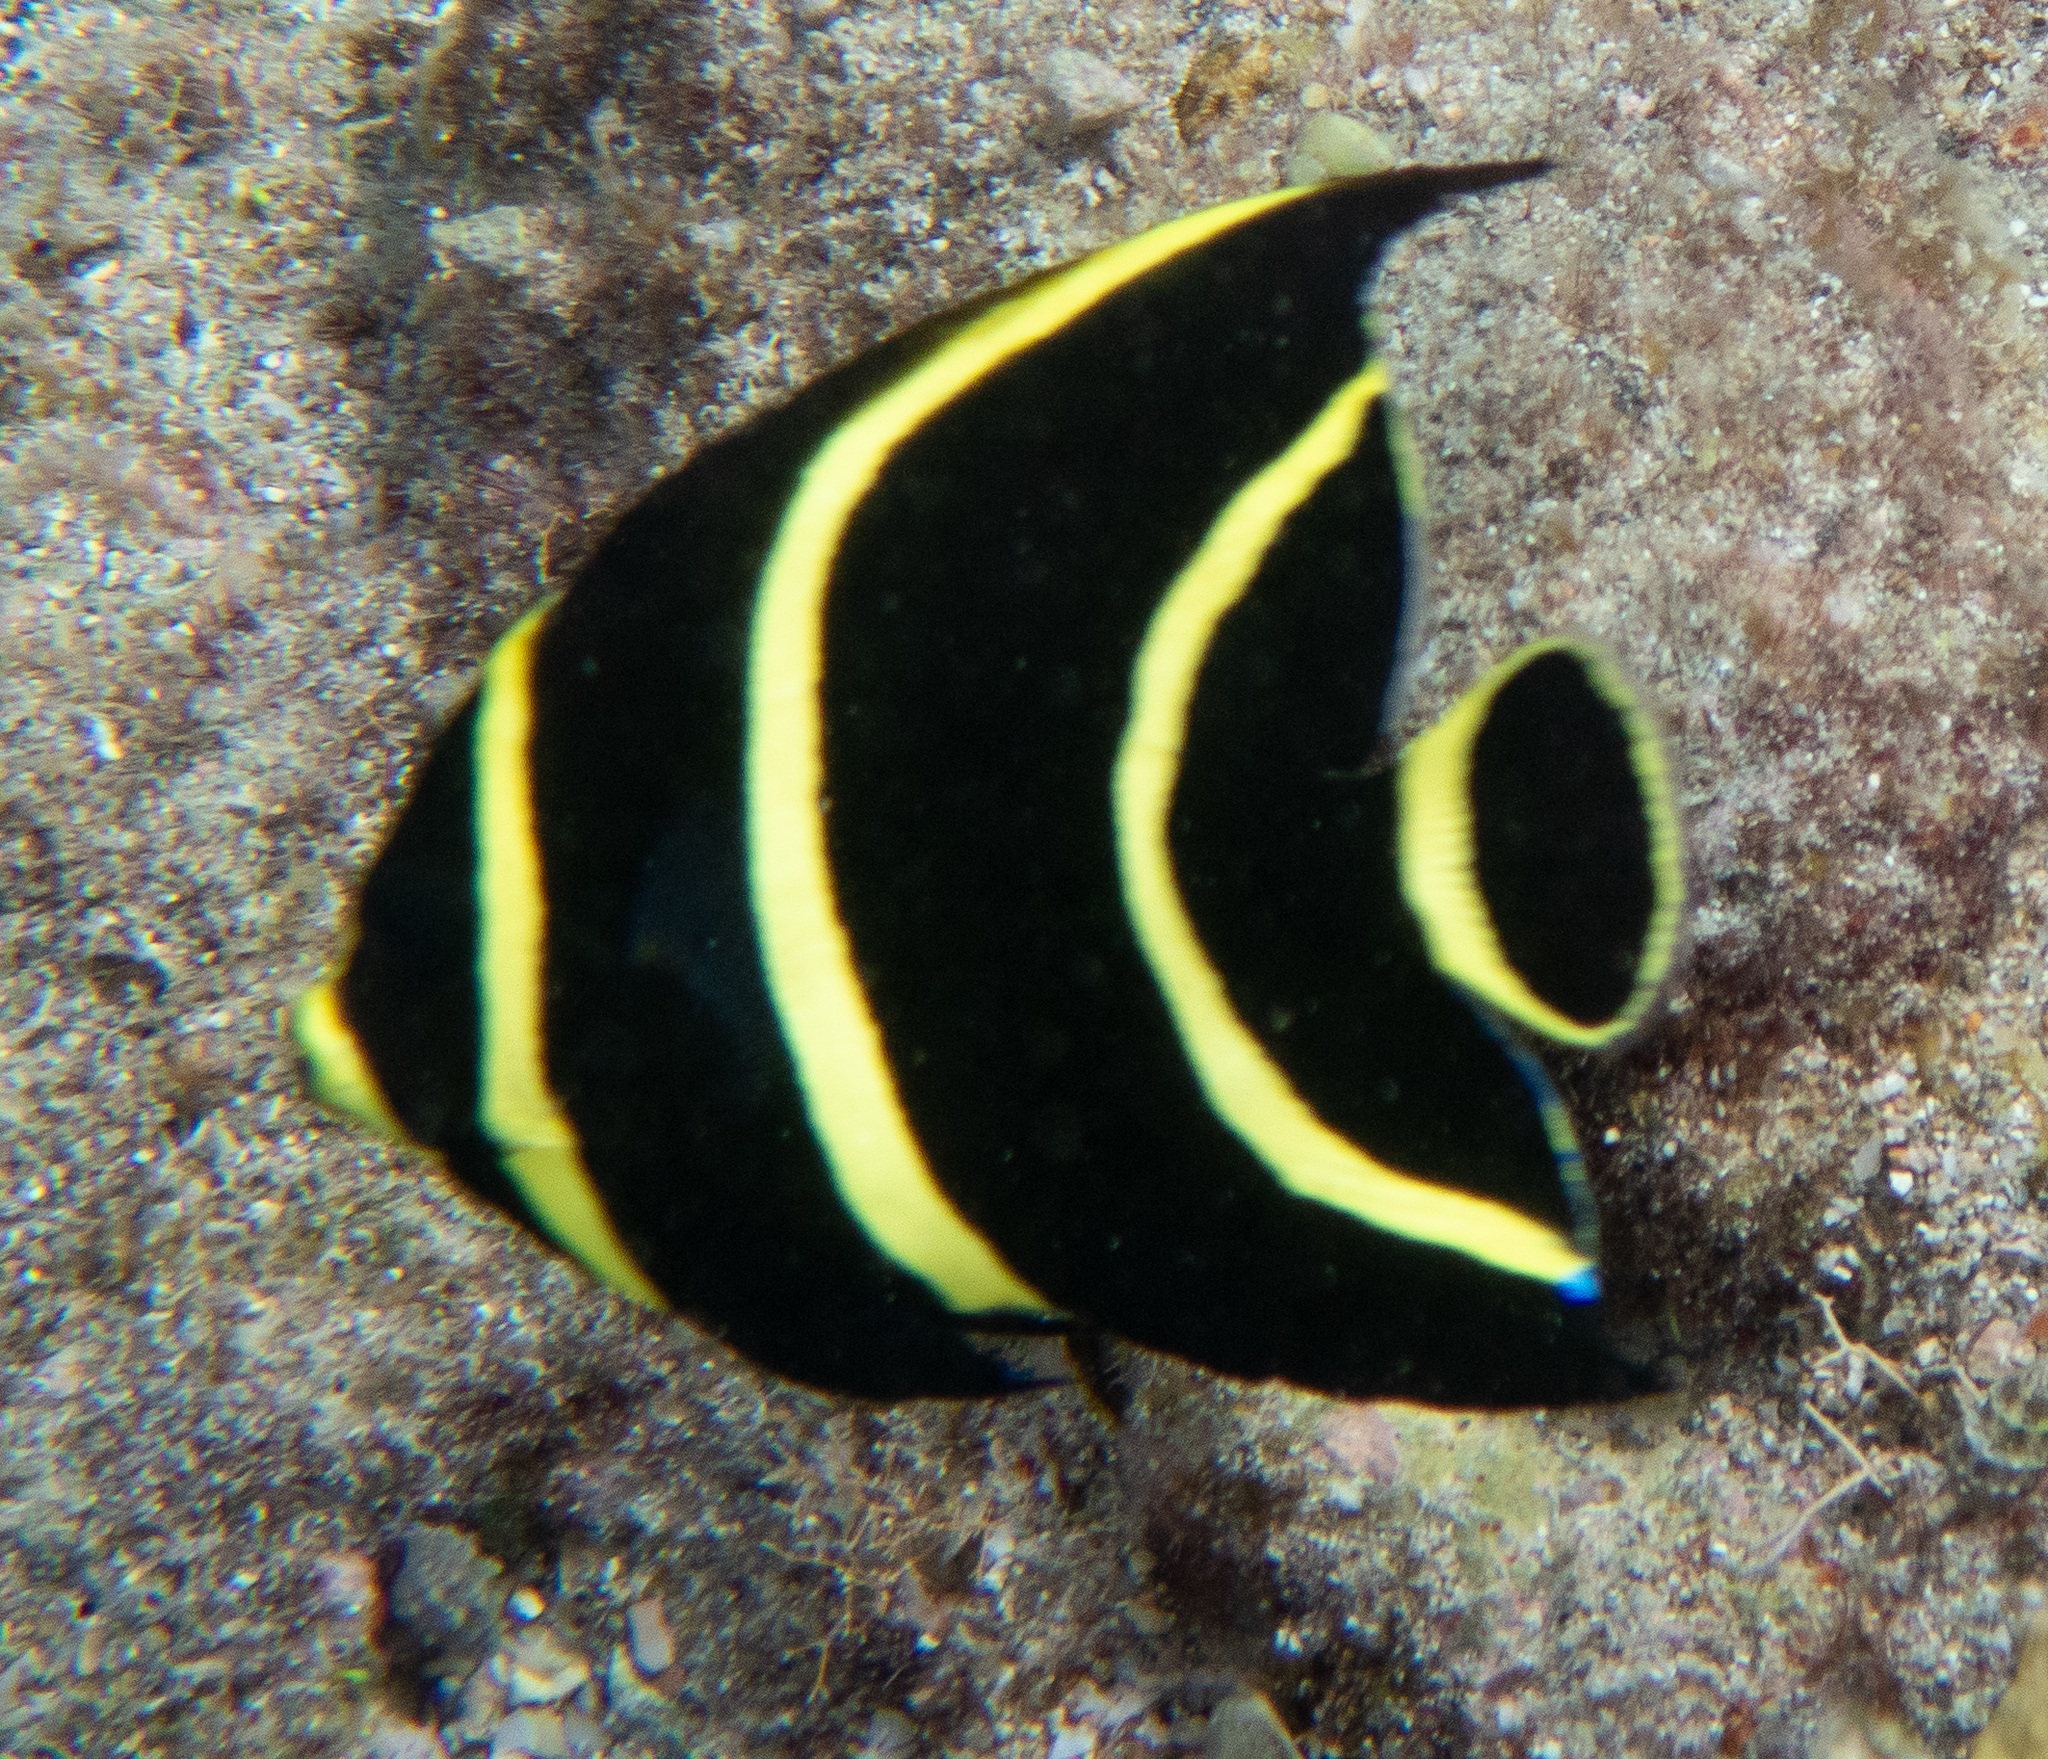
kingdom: Animalia
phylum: Chordata
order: Perciformes
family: Pomacanthidae
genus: Pomacanthus
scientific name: Pomacanthus paru
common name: French angelfish
